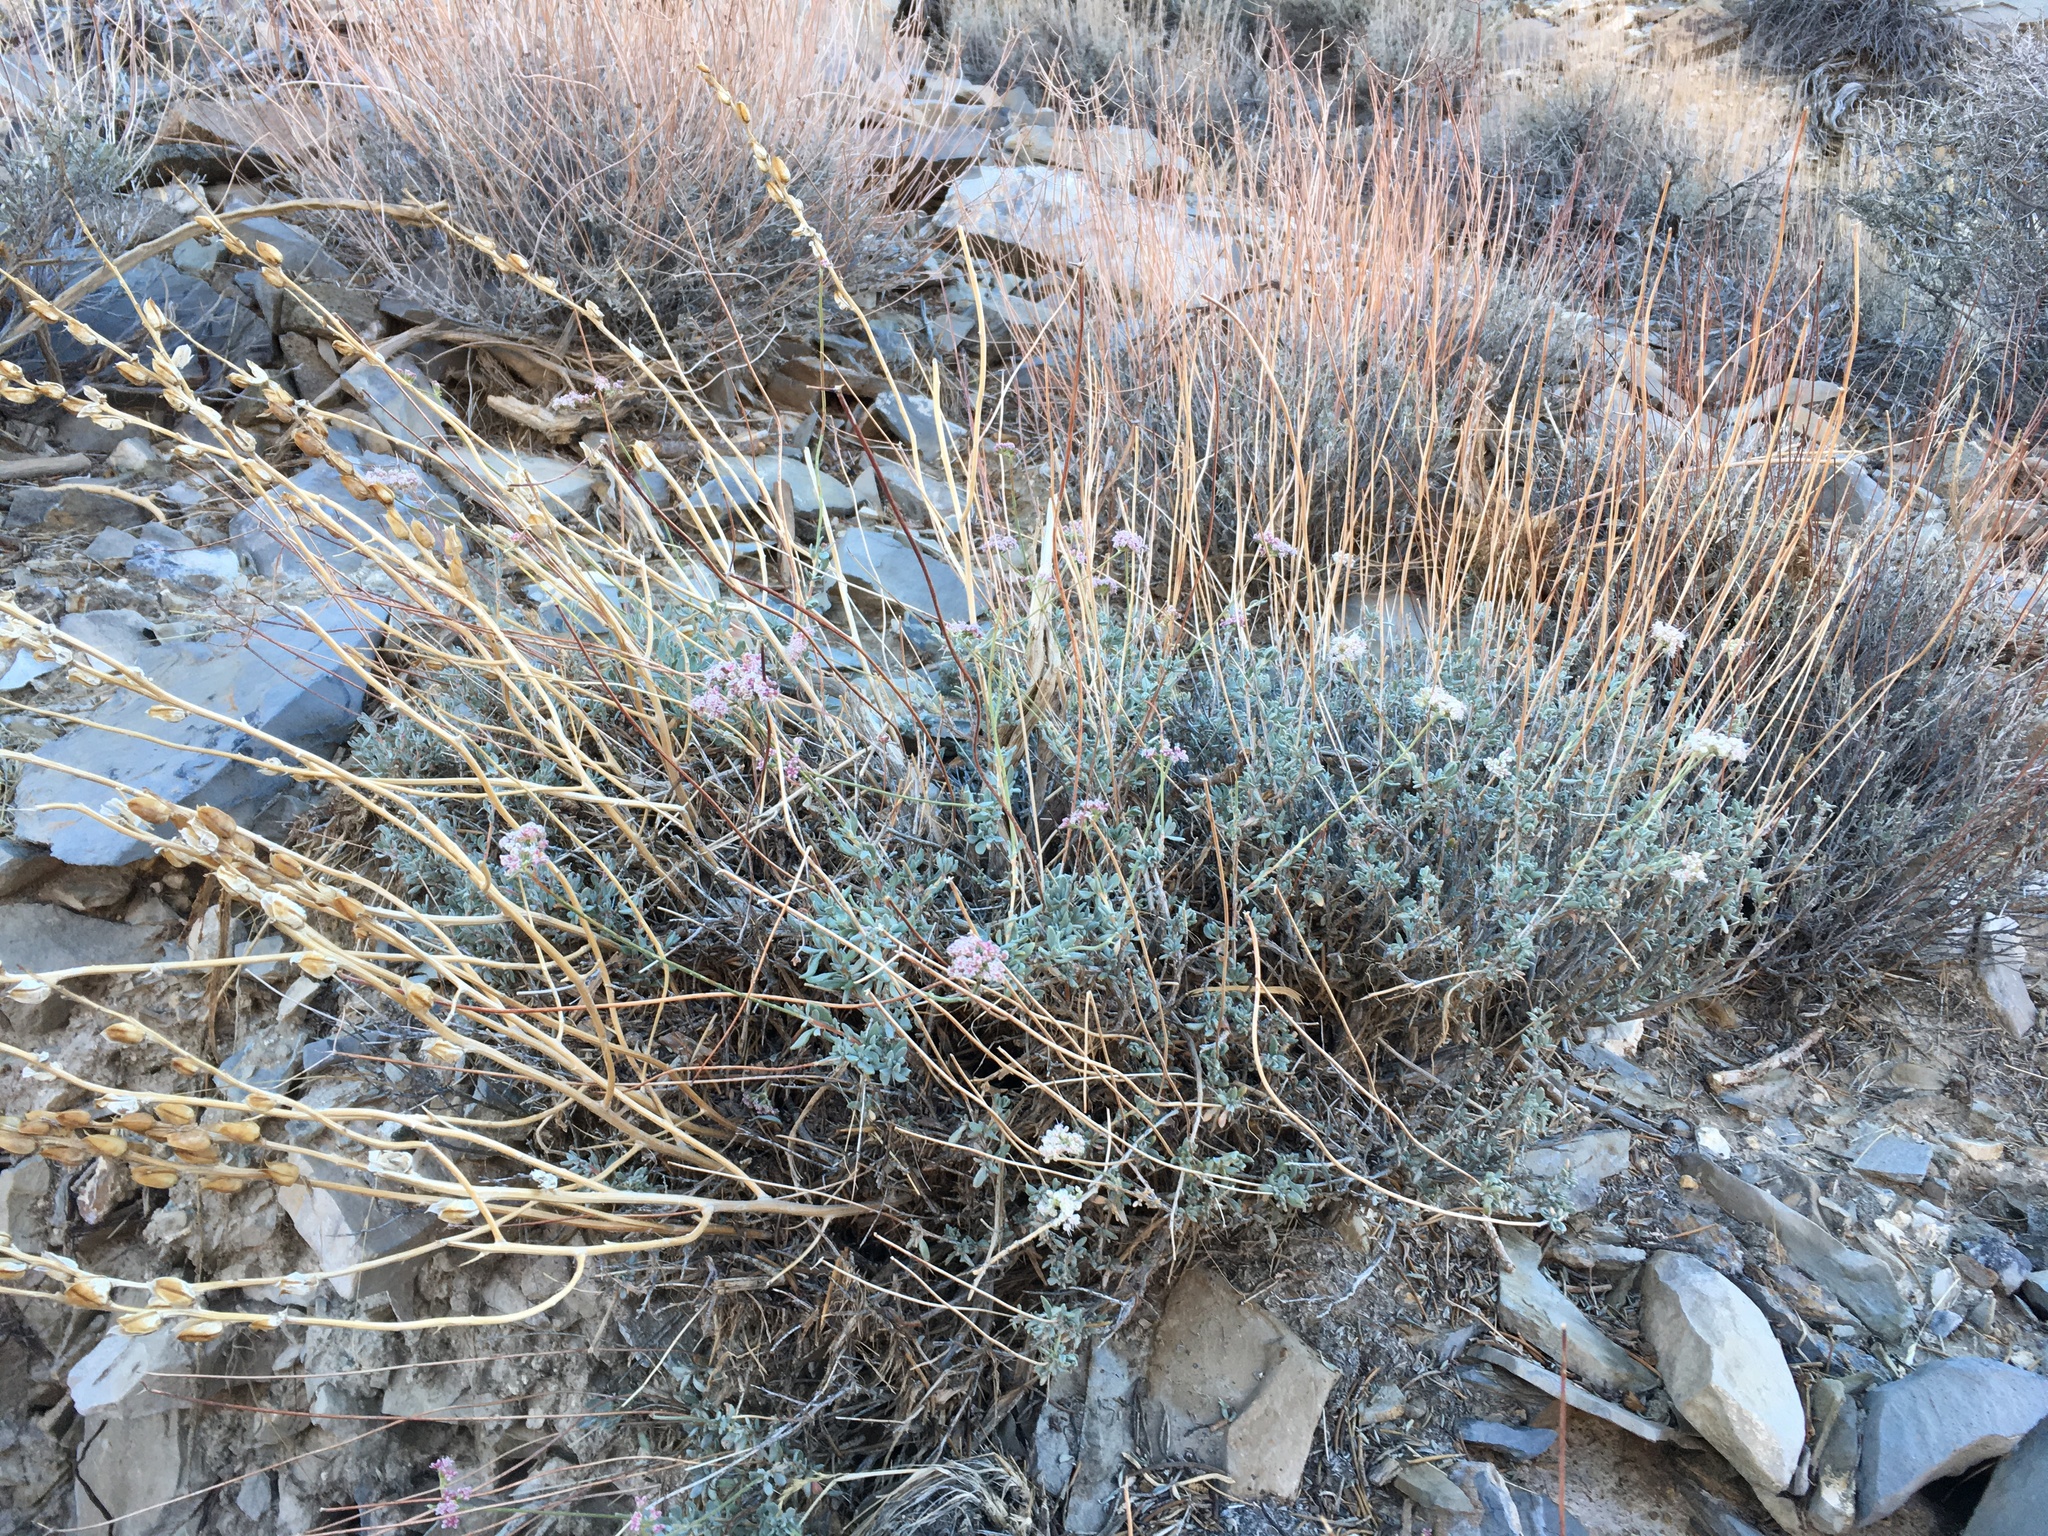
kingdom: Plantae
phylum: Tracheophyta
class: Magnoliopsida
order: Caryophyllales
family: Polygonaceae
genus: Eriogonum
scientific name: Eriogonum fasciculatum
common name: California wild buckwheat
